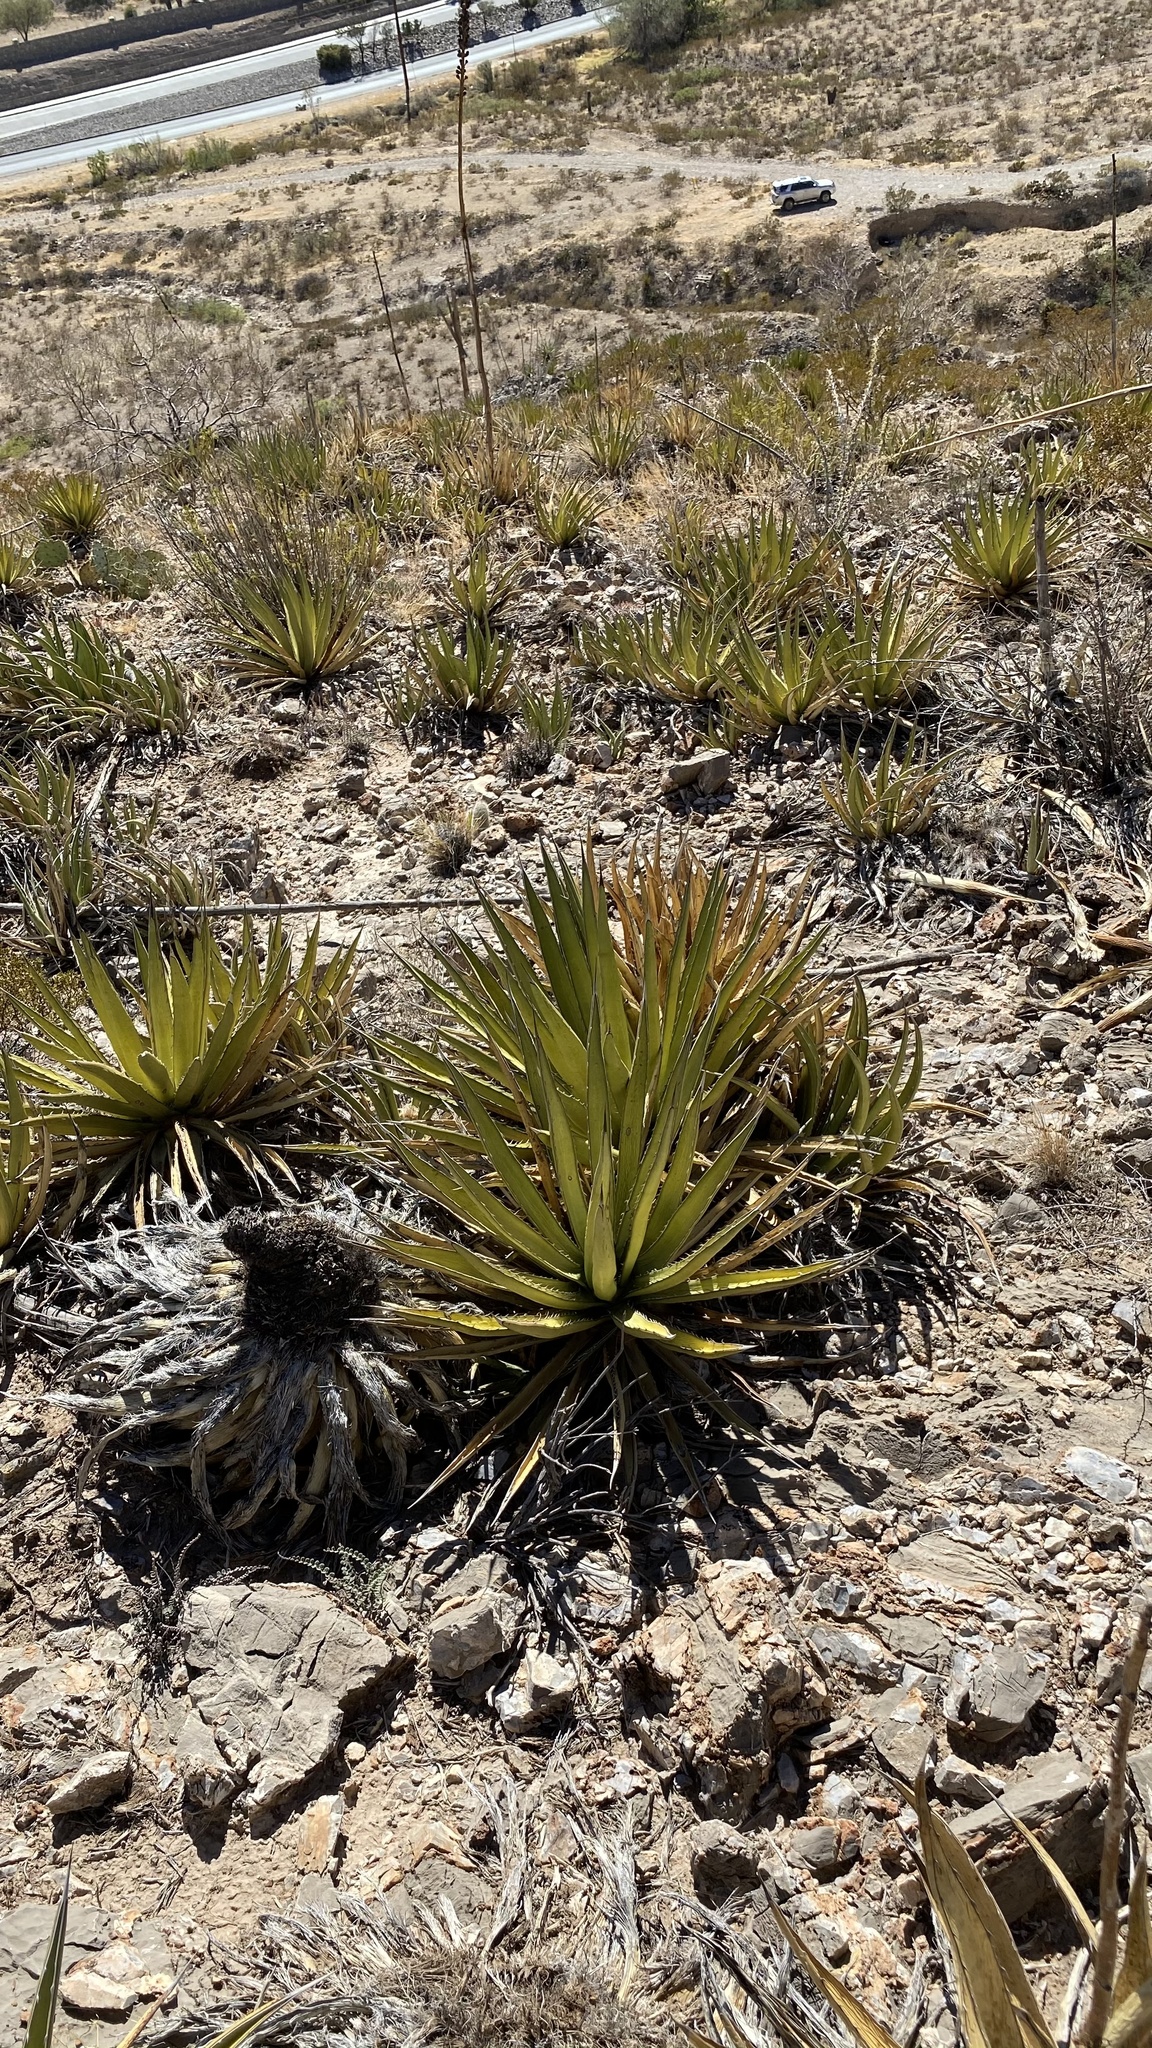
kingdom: Plantae
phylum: Tracheophyta
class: Liliopsida
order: Asparagales
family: Asparagaceae
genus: Agave
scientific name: Agave lechuguilla
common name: Lecheguilla agave
